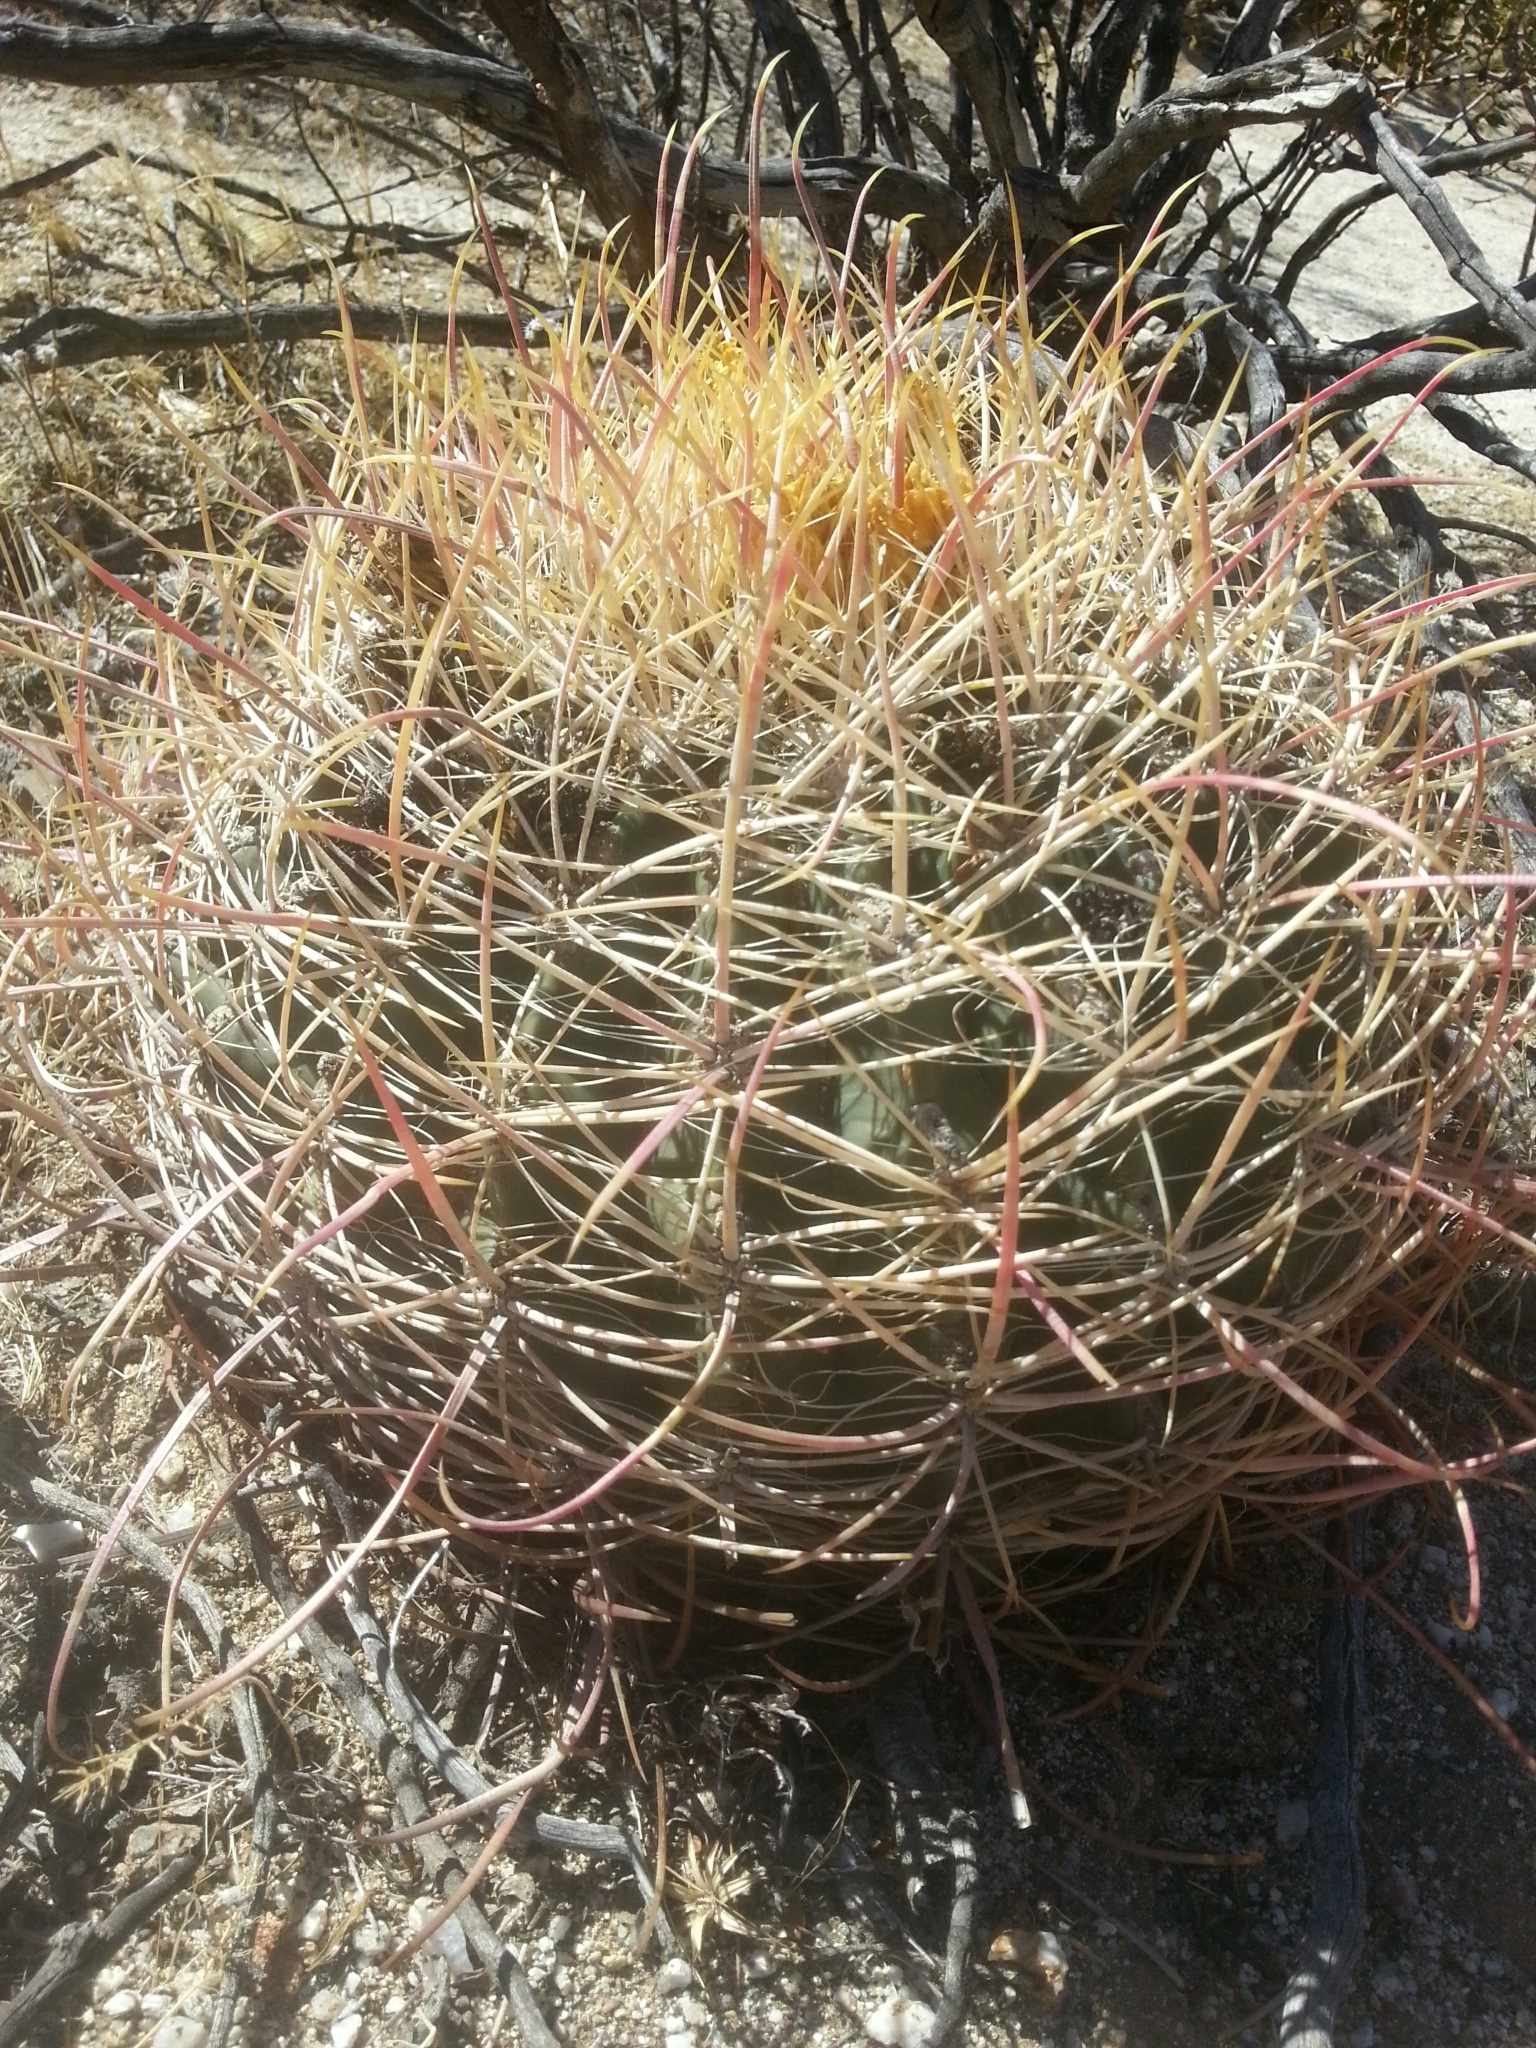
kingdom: Plantae
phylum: Tracheophyta
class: Magnoliopsida
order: Caryophyllales
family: Cactaceae
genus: Ferocactus
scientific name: Ferocactus cylindraceus
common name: California barrel cactus
